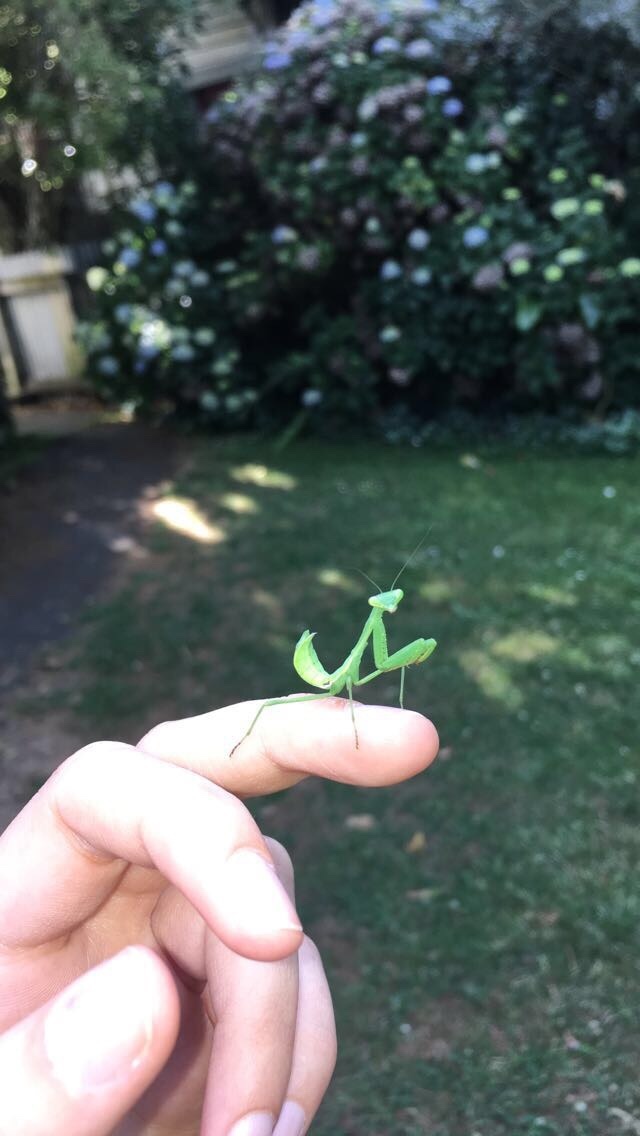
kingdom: Animalia
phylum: Arthropoda
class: Insecta
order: Mantodea
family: Miomantidae
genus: Miomantis
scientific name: Miomantis caffra
